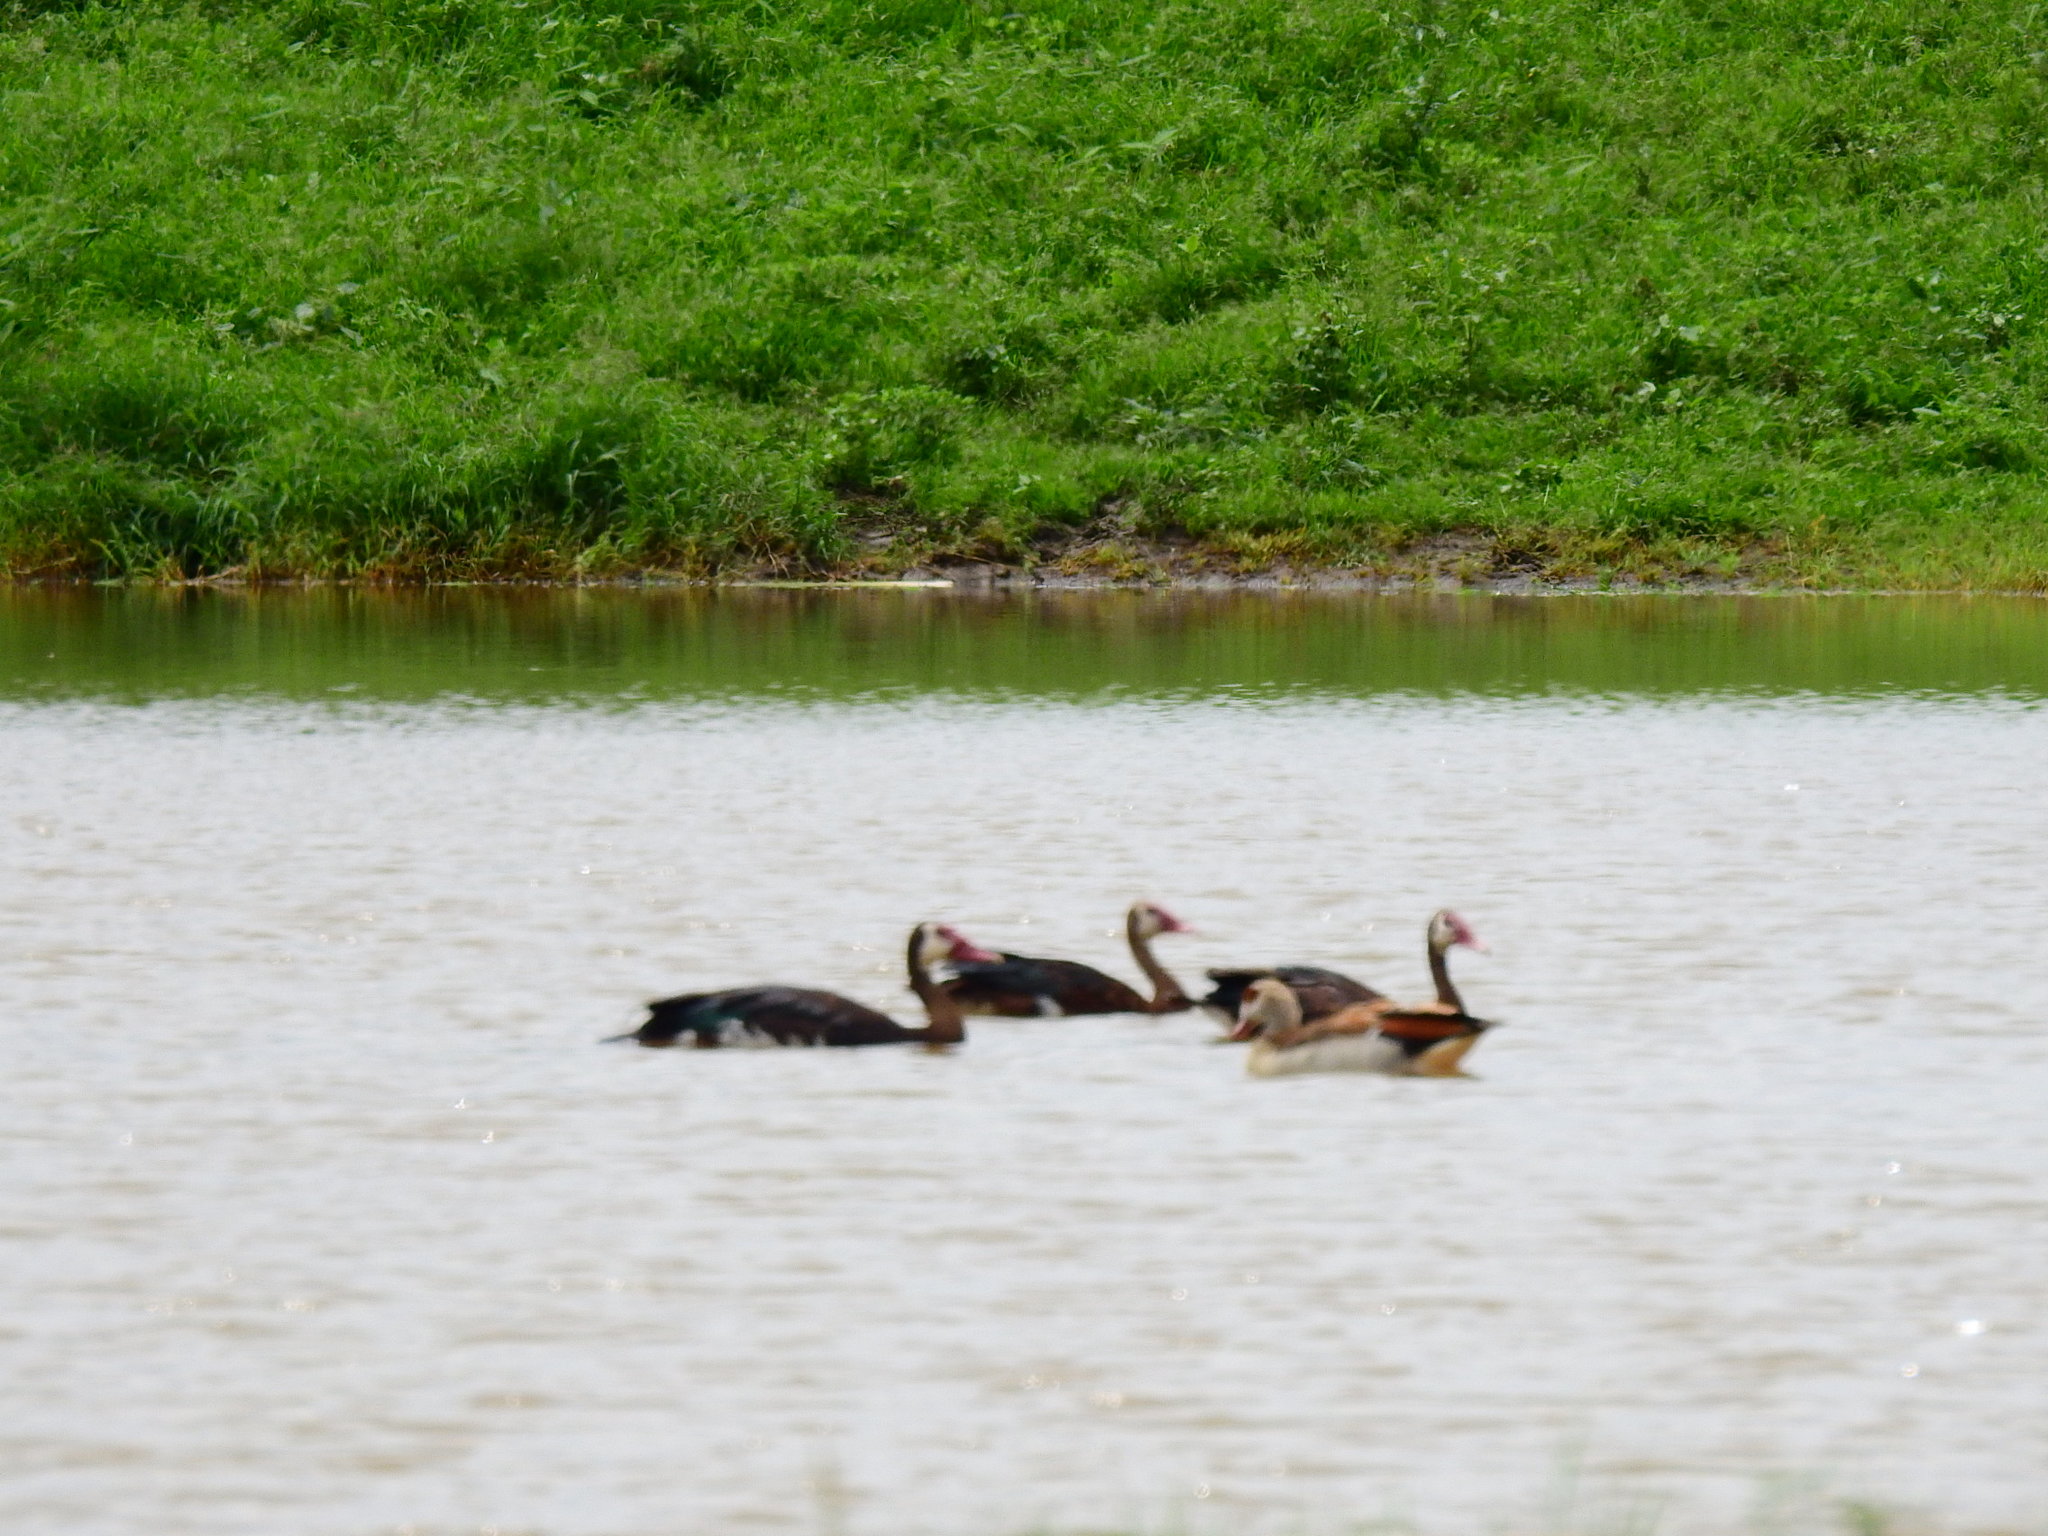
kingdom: Animalia
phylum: Chordata
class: Aves
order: Anseriformes
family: Anatidae
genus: Plectropterus
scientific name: Plectropterus gambensis
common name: Spur-winged goose
